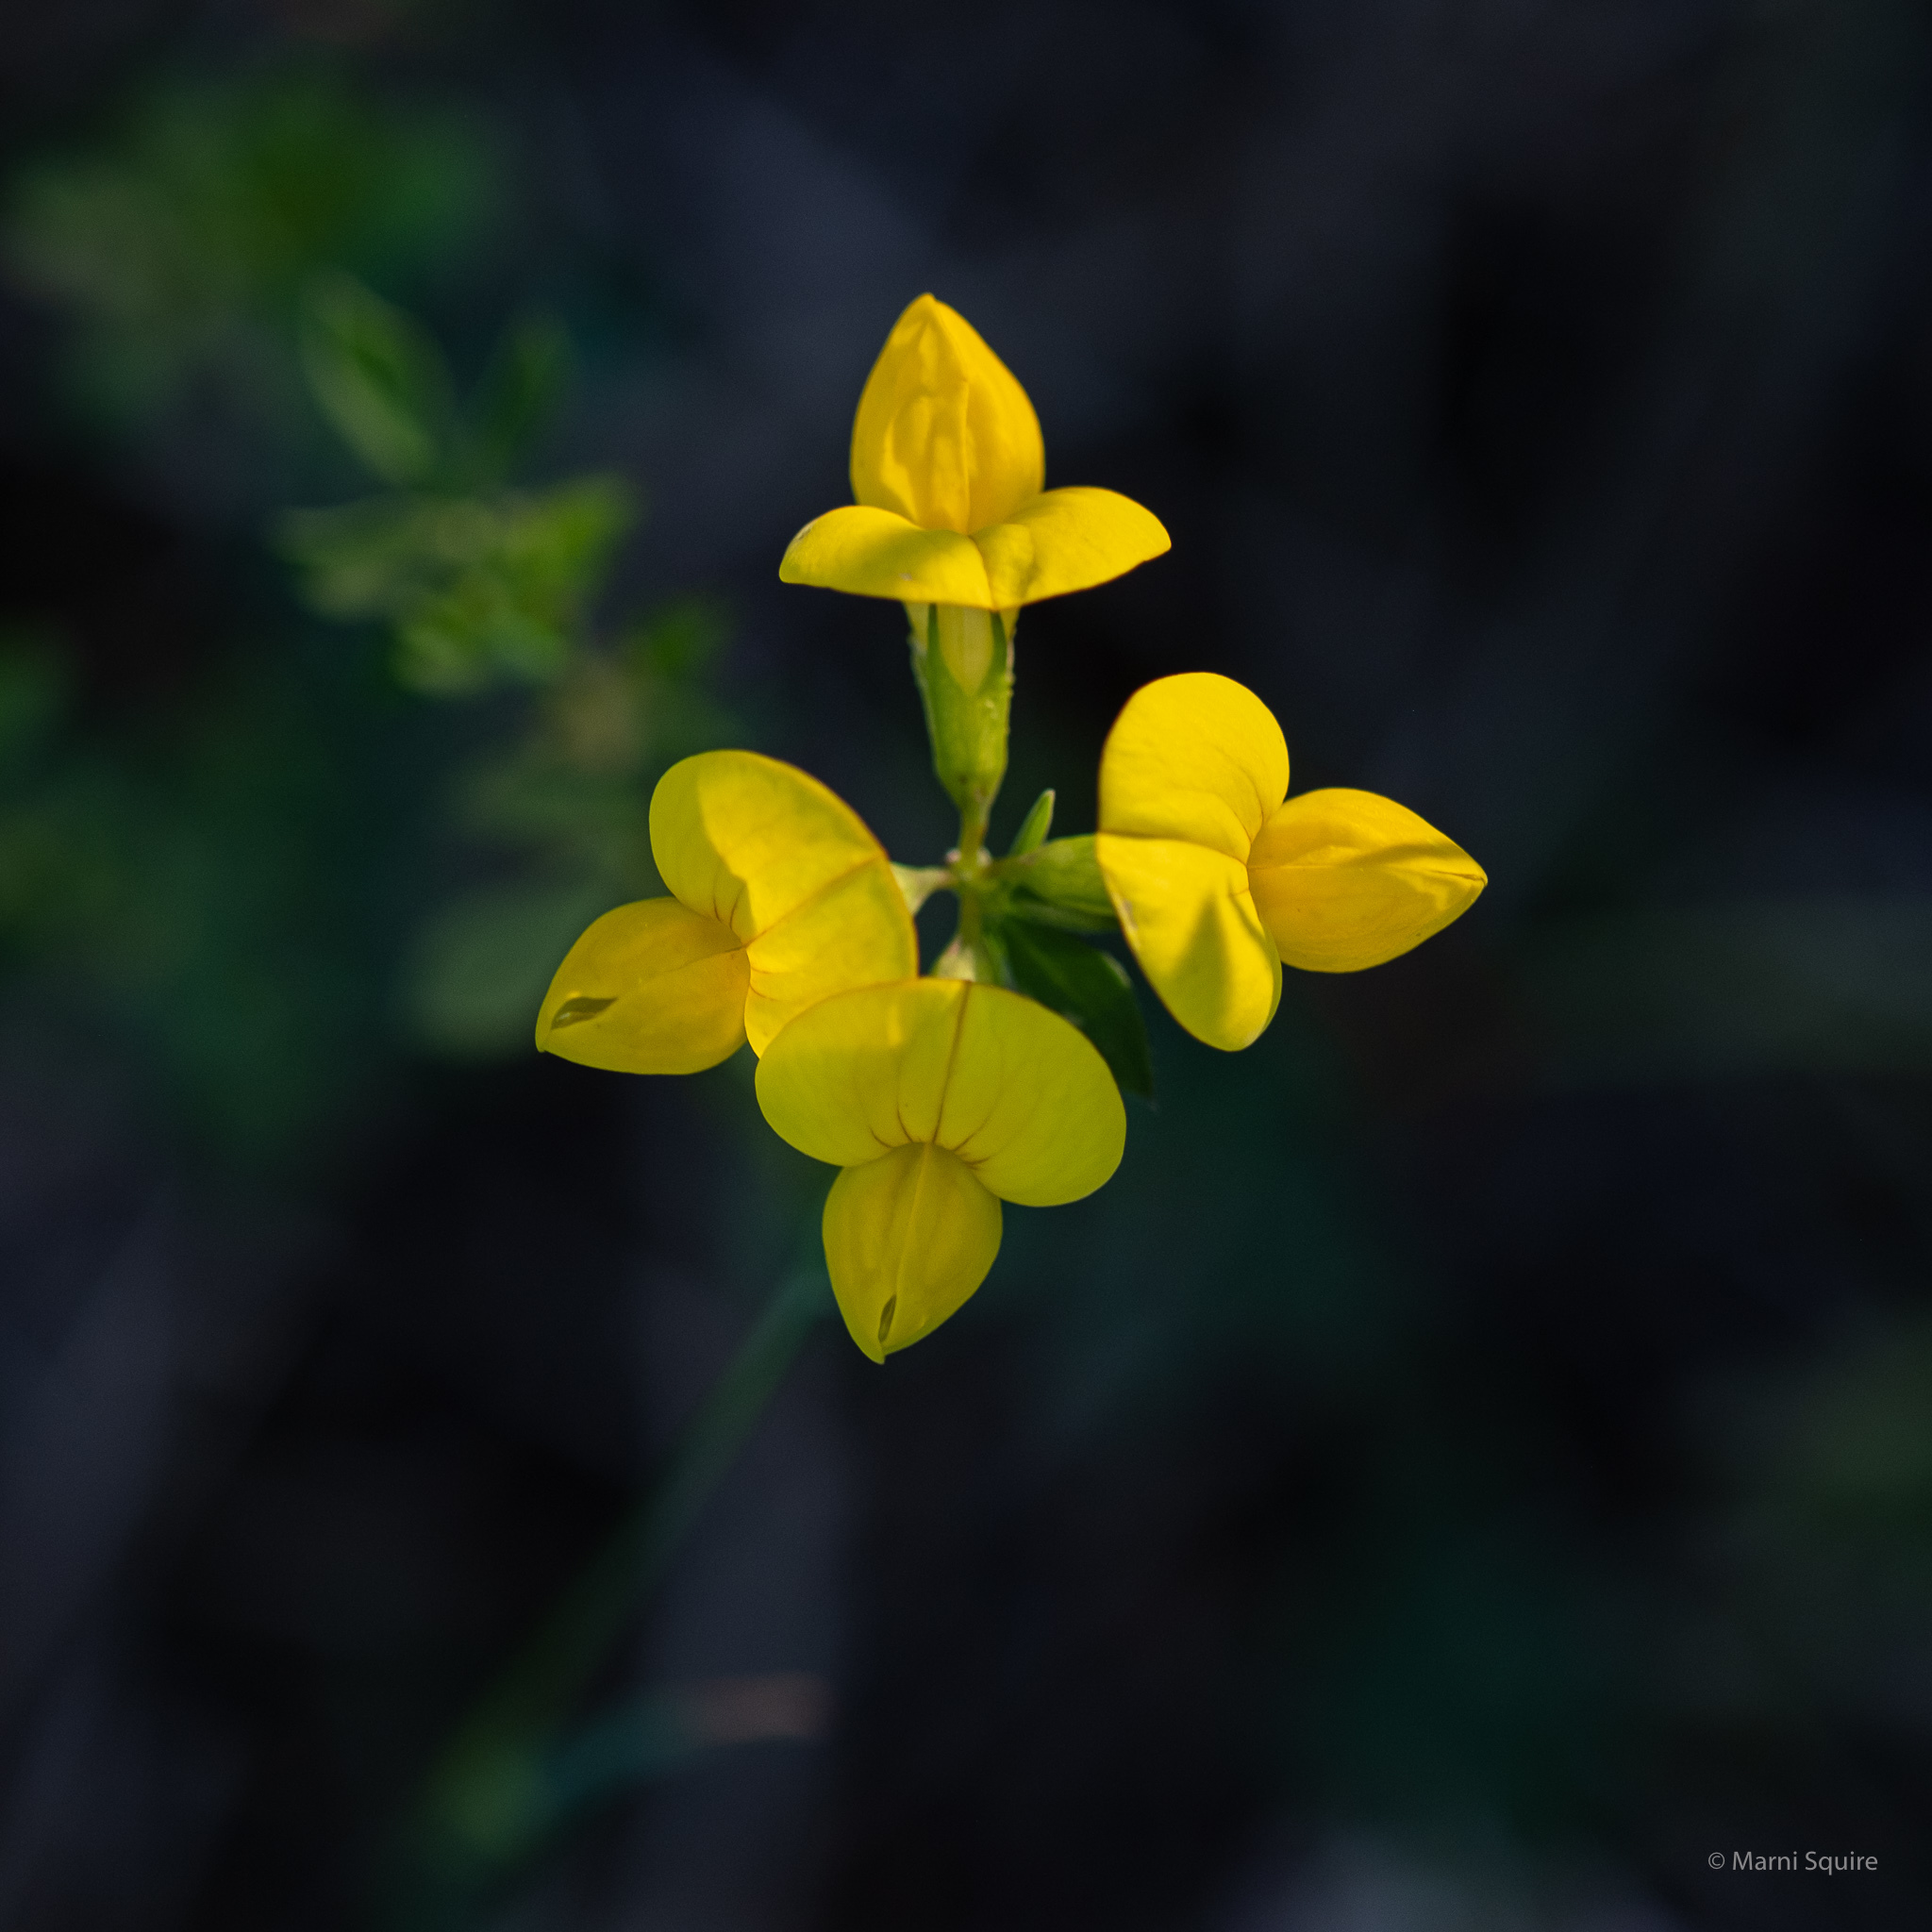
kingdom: Plantae
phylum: Tracheophyta
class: Magnoliopsida
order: Fabales
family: Fabaceae
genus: Lotus
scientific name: Lotus corniculatus
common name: Common bird's-foot-trefoil
